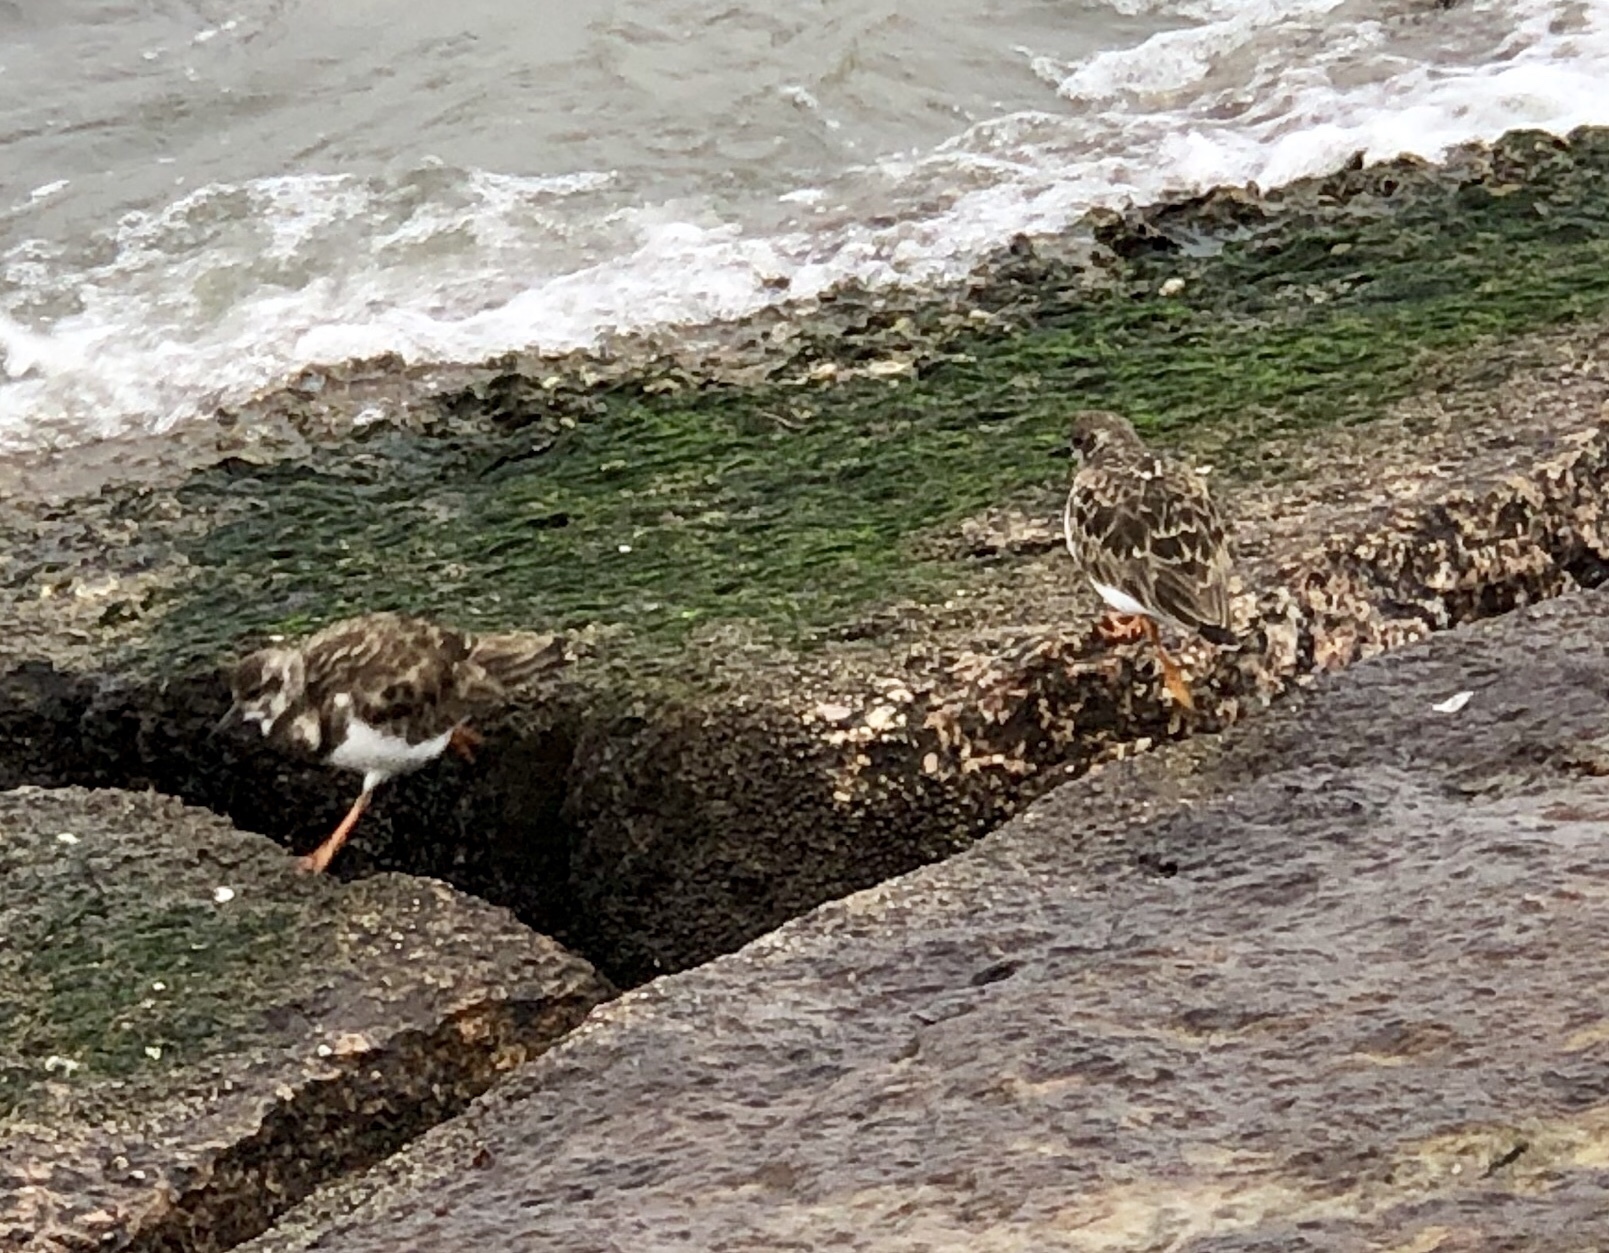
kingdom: Animalia
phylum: Chordata
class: Aves
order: Charadriiformes
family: Scolopacidae
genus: Arenaria
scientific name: Arenaria interpres
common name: Ruddy turnstone
